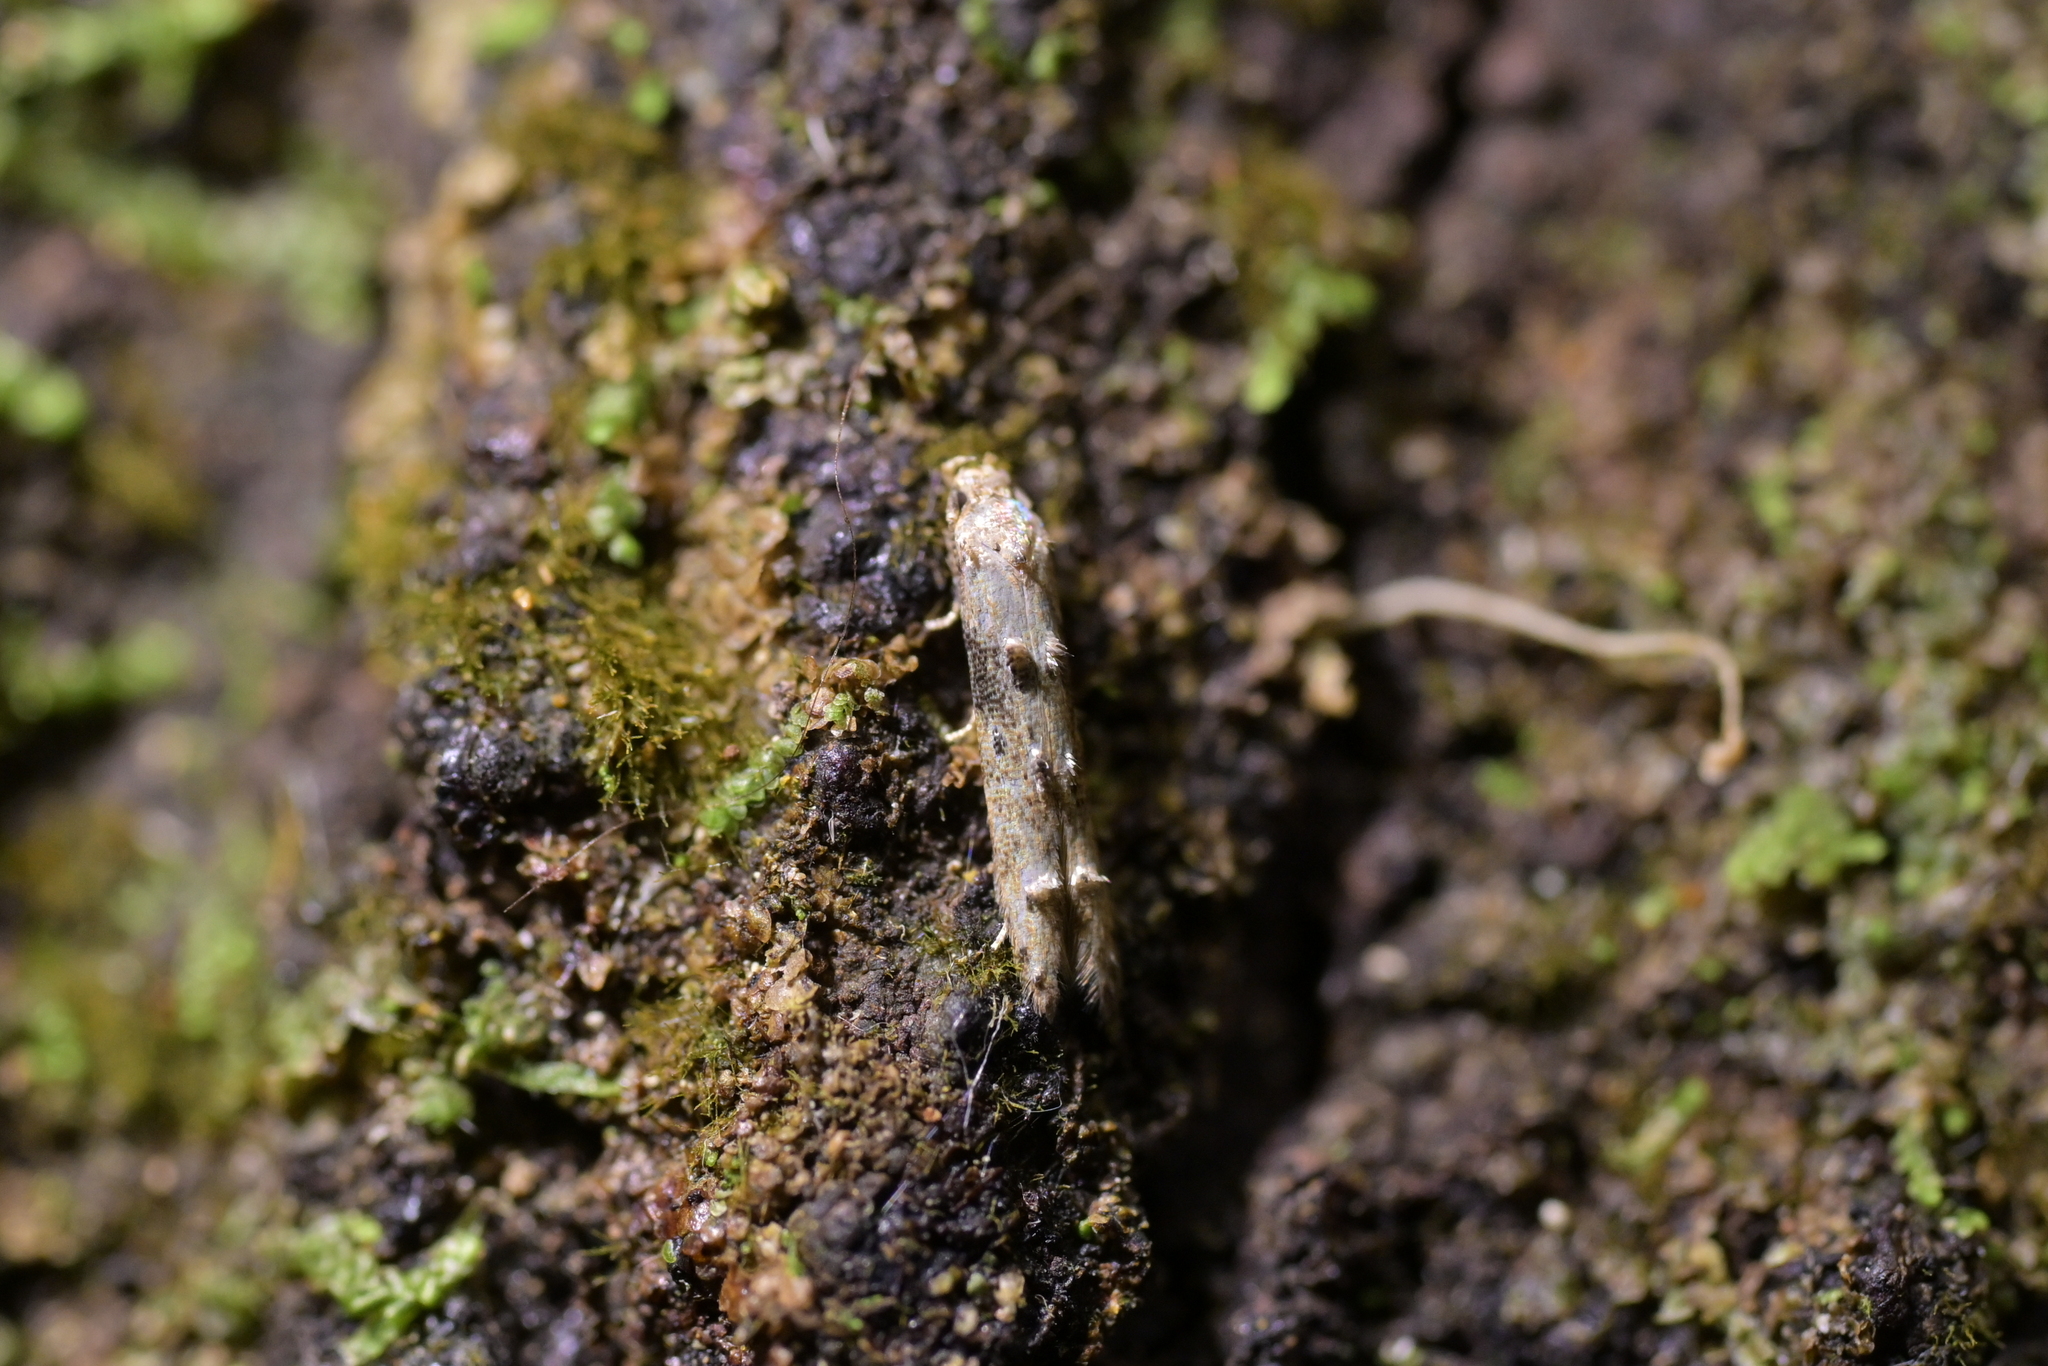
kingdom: Animalia
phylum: Arthropoda
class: Insecta
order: Lepidoptera
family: Elachistidae
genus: Microcolona
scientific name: Microcolona limodes
